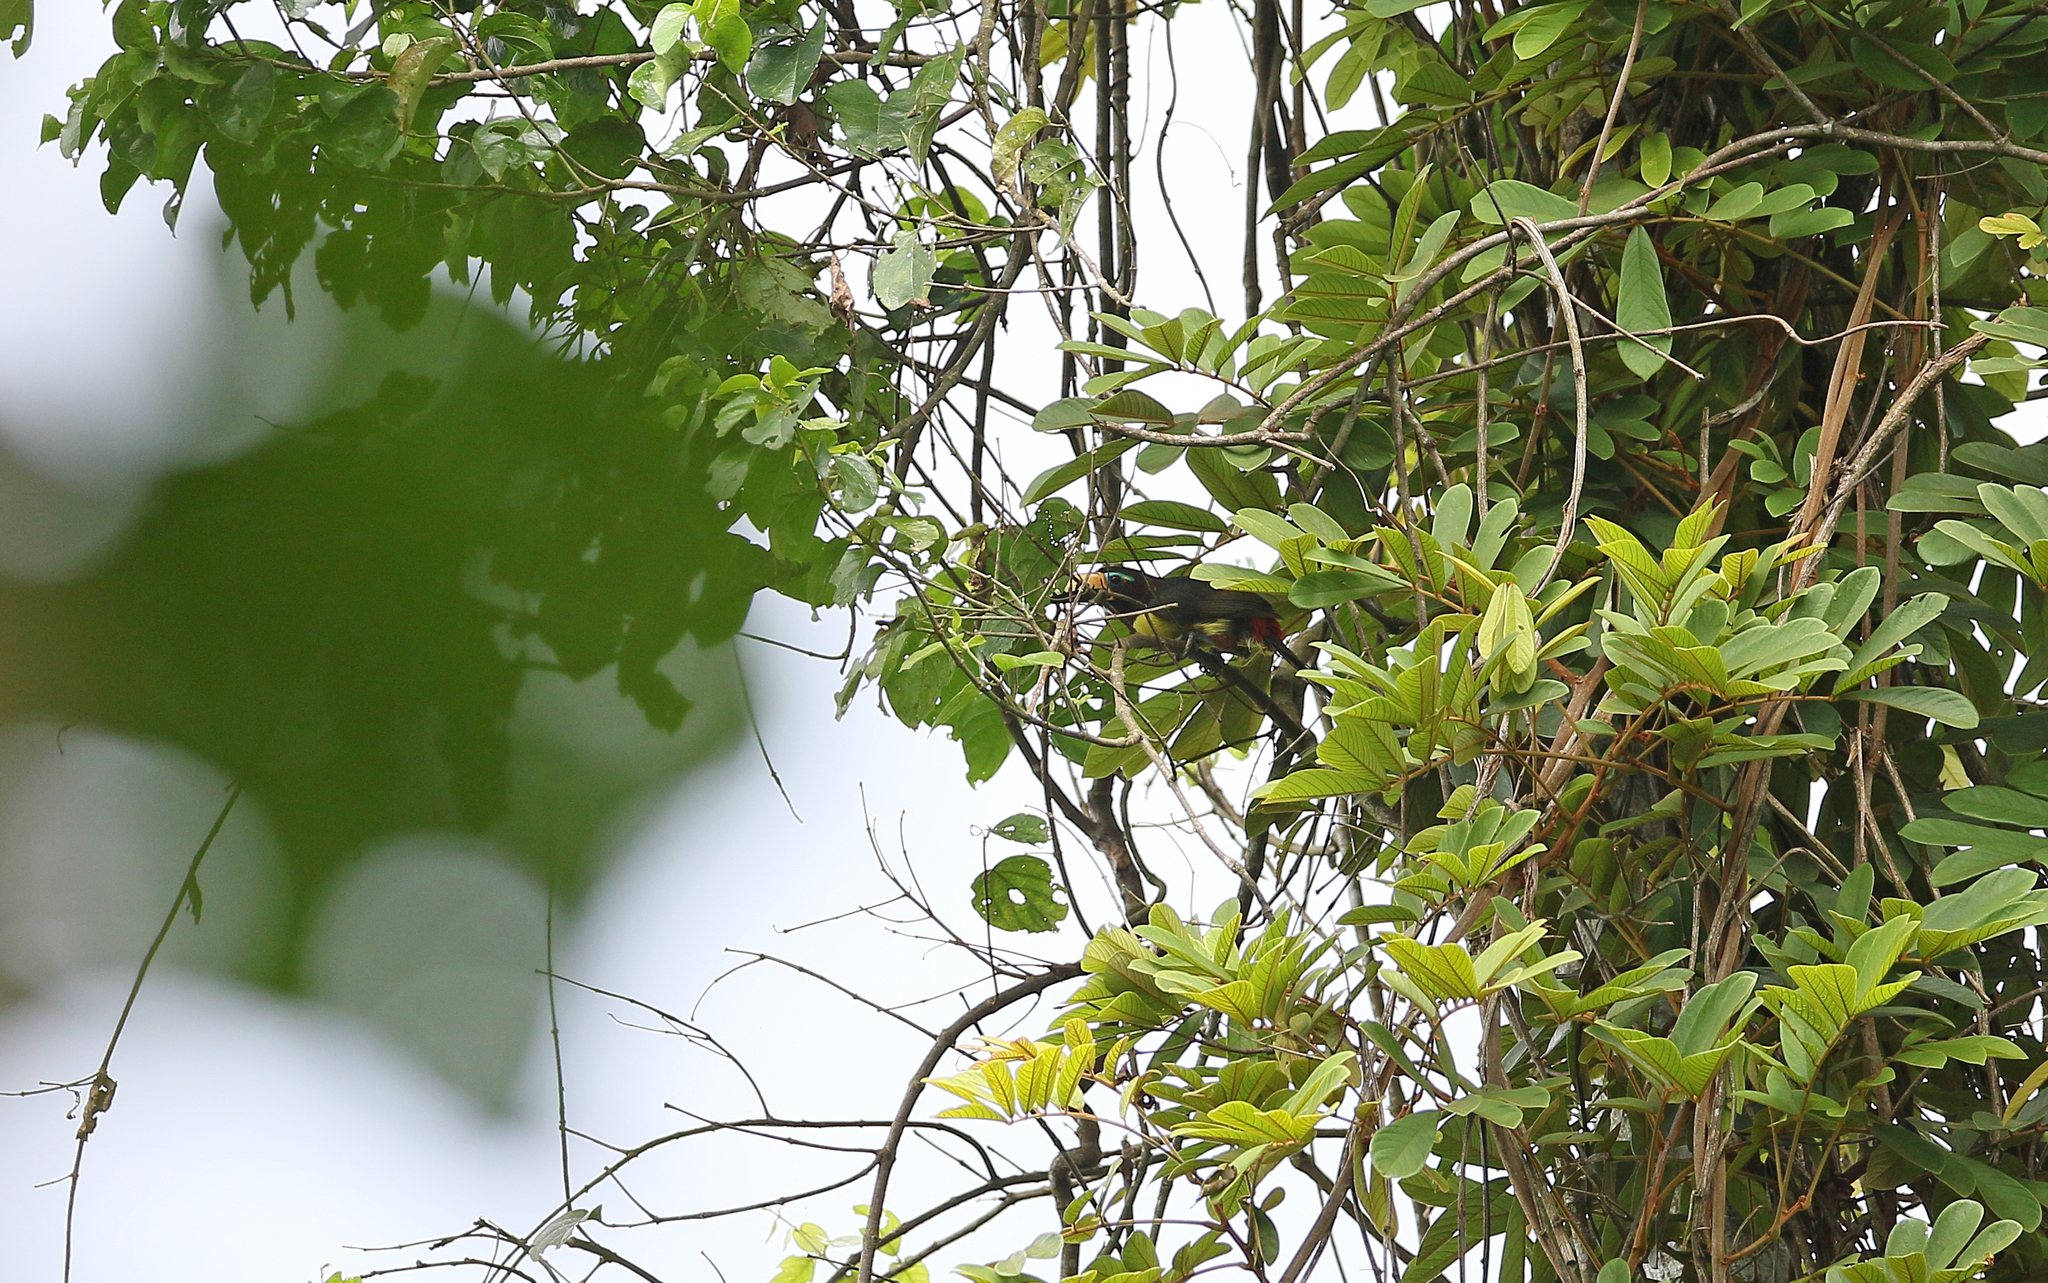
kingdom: Animalia
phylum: Chordata
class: Aves
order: Piciformes
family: Ramphastidae
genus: Pteroglossus
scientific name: Pteroglossus inscriptus
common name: Lettered aracari
